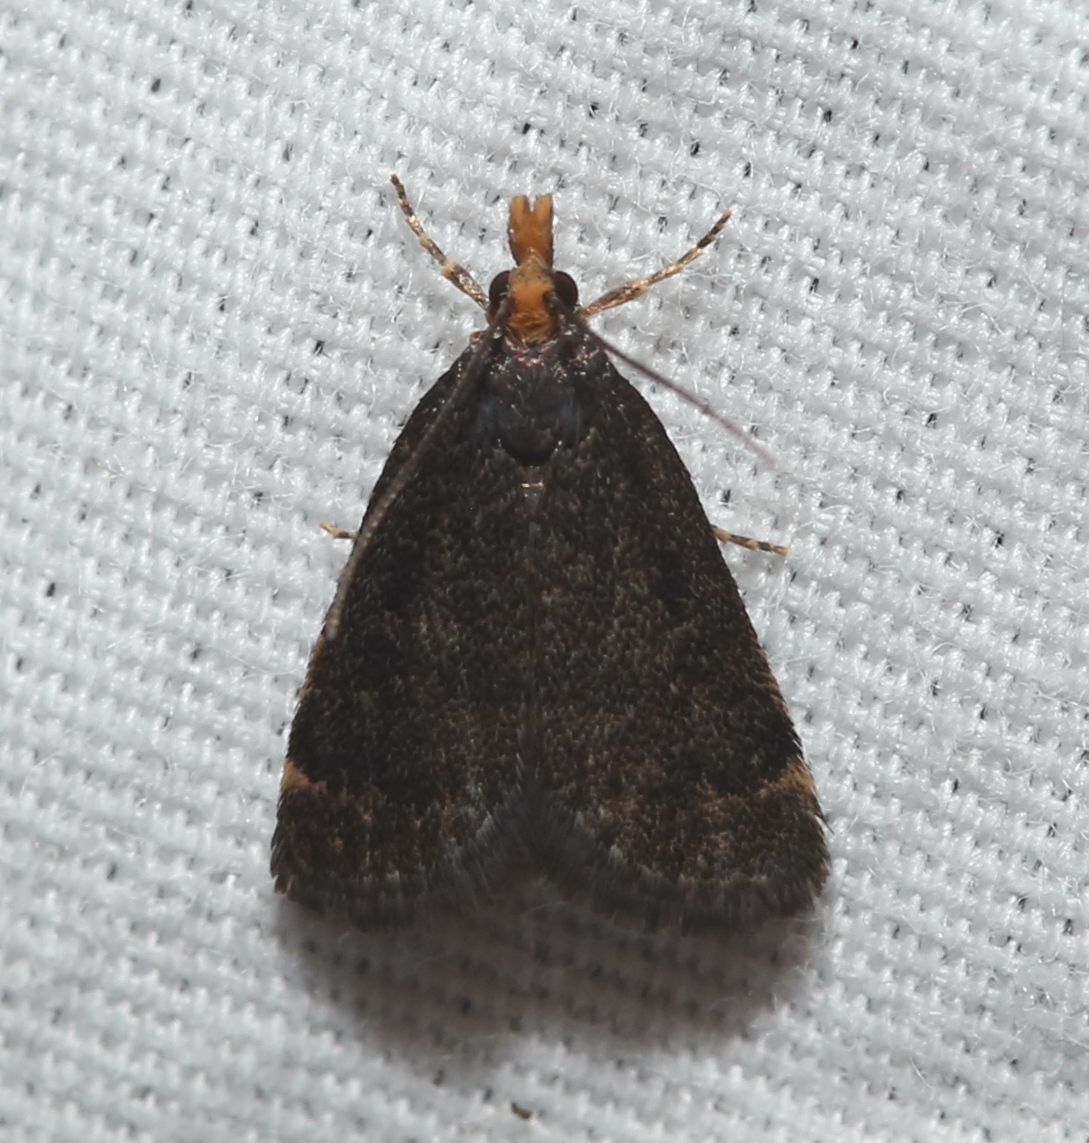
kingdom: Animalia
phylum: Arthropoda
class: Insecta
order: Lepidoptera
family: Crambidae
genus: Pyrausta
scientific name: Pyrausta merrickalis
